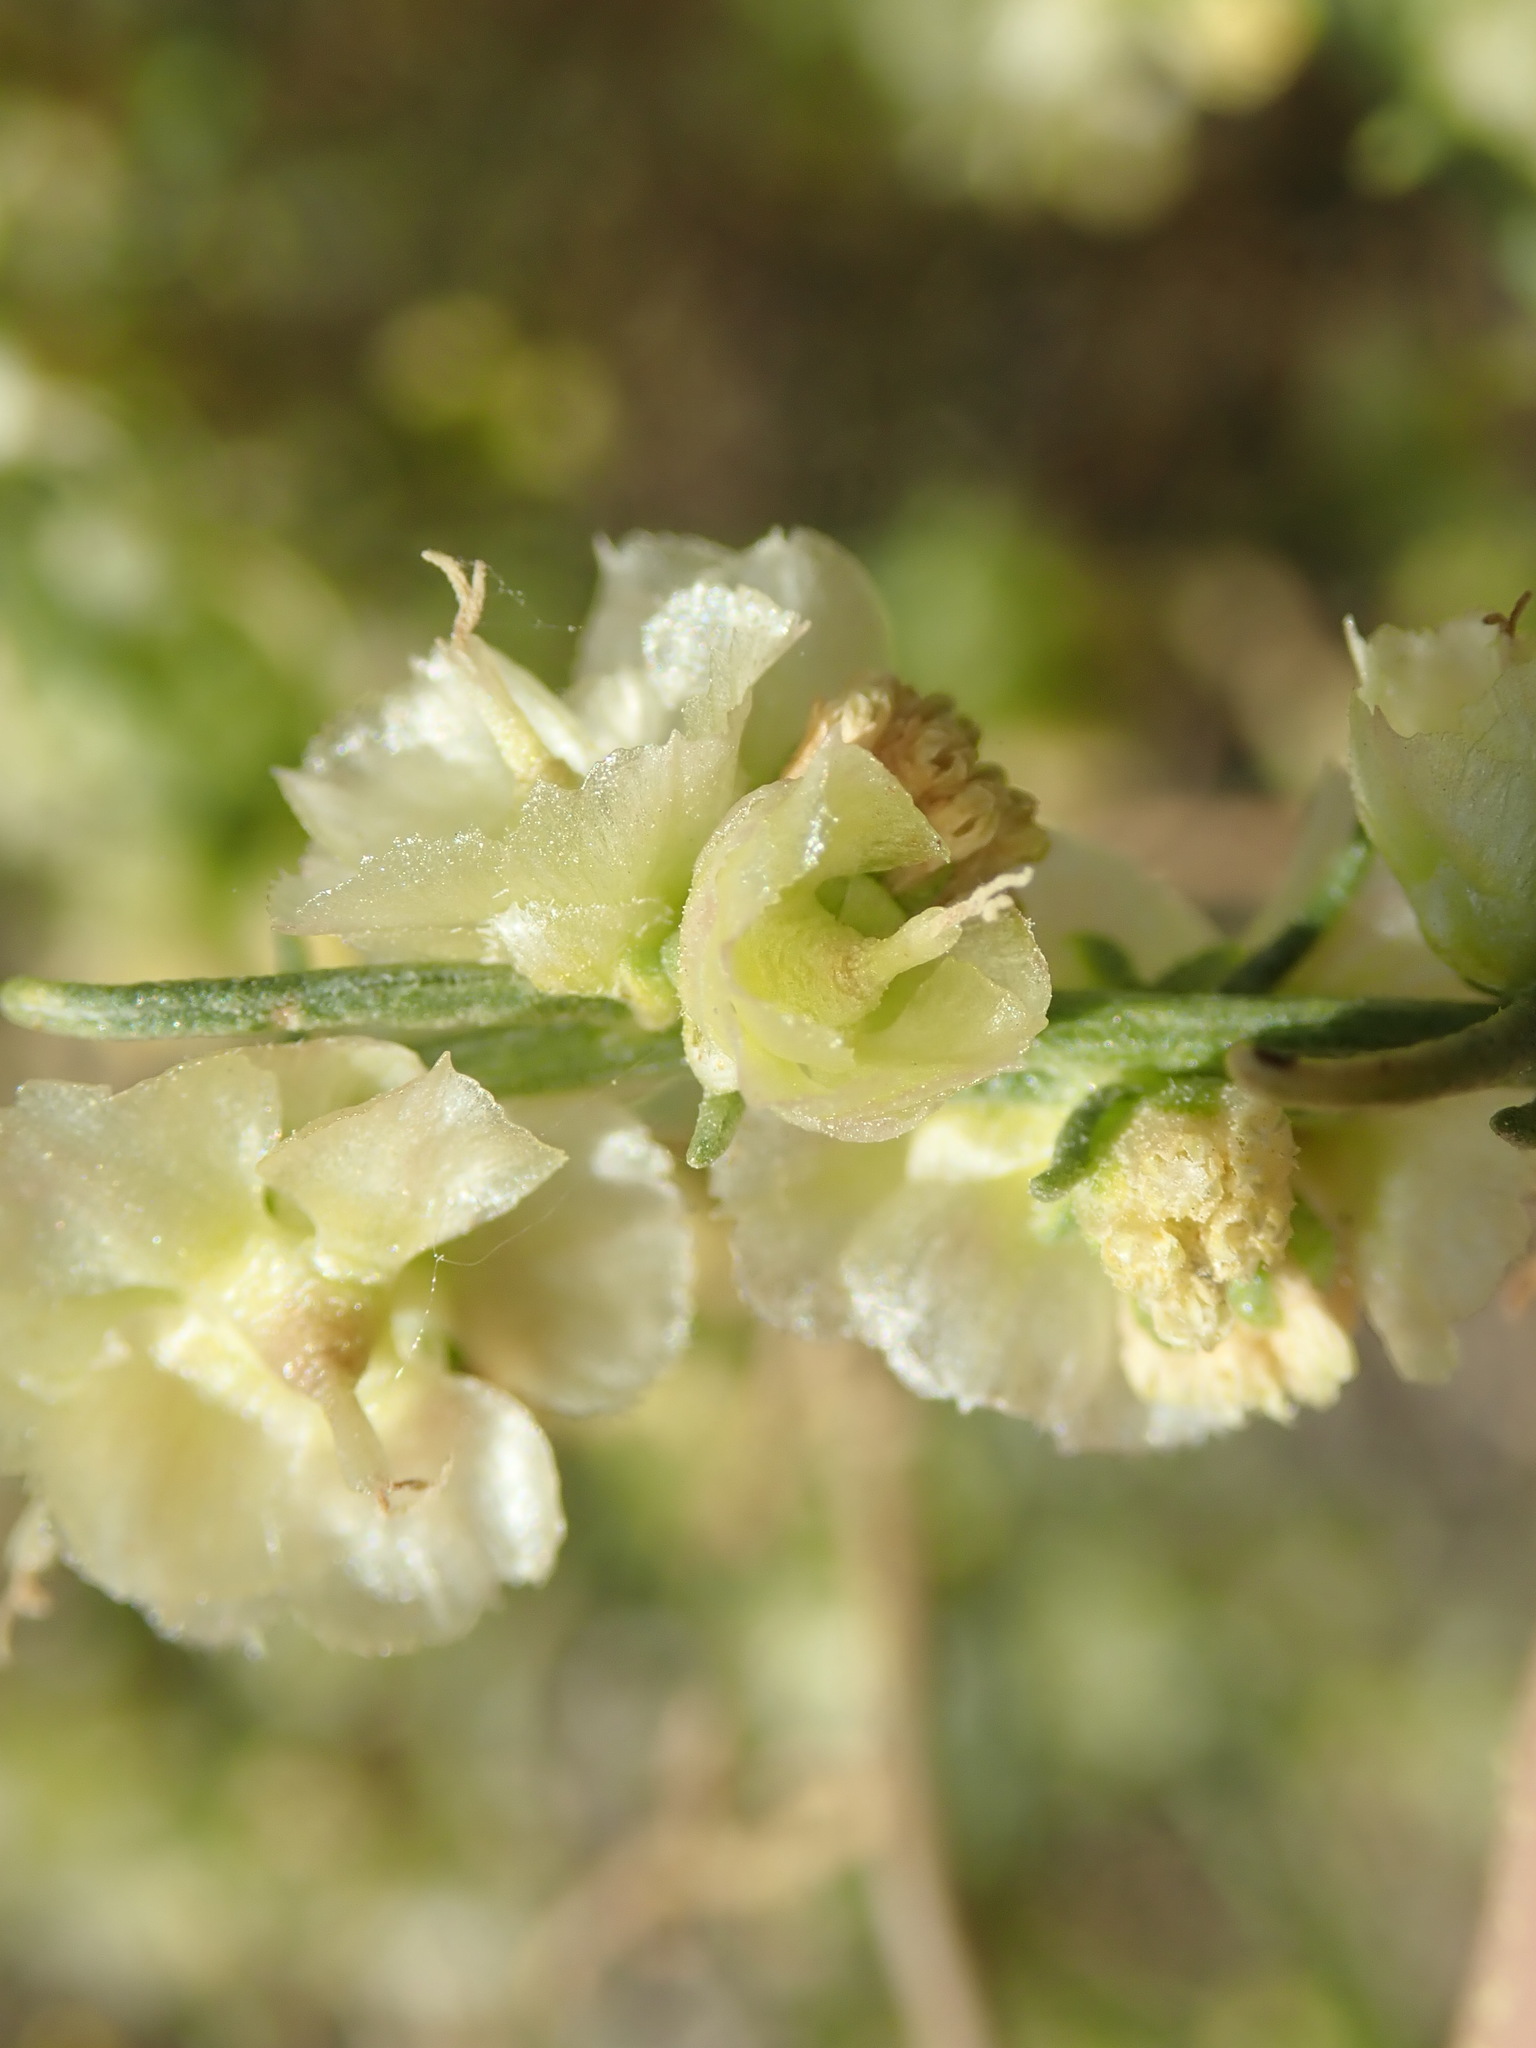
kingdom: Plantae
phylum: Tracheophyta
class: Magnoliopsida
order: Asterales
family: Asteraceae
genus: Ambrosia
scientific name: Ambrosia salsola
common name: Burrobrush
